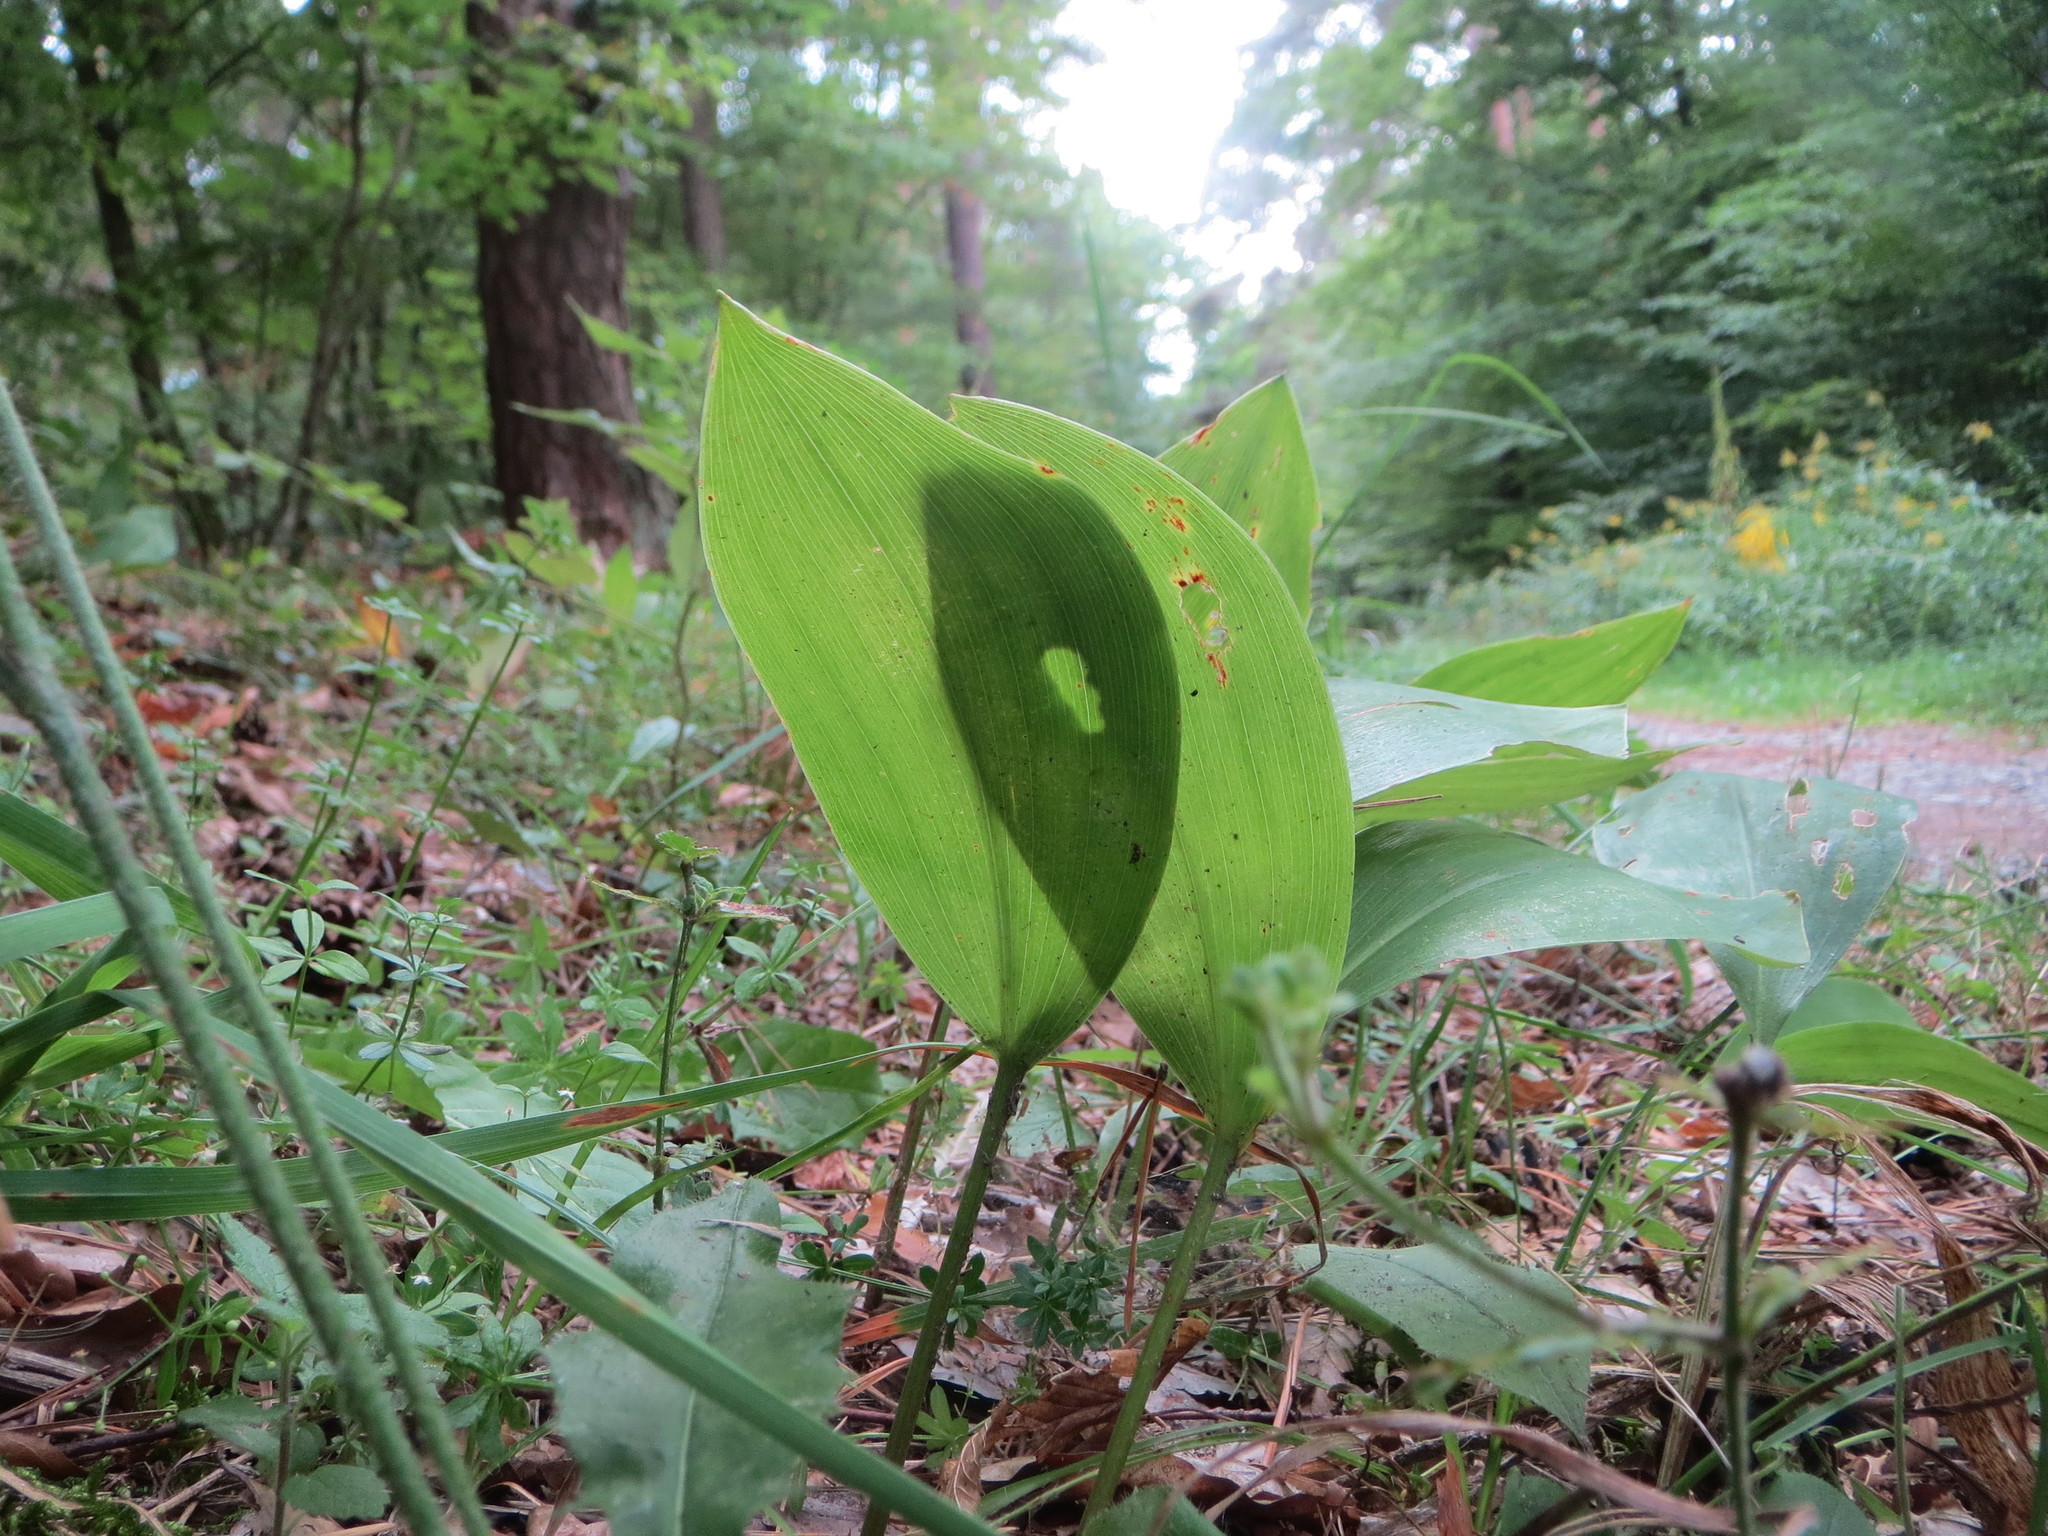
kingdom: Plantae
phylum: Tracheophyta
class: Liliopsida
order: Asparagales
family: Asparagaceae
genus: Convallaria
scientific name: Convallaria majalis
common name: Lily-of-the-valley
